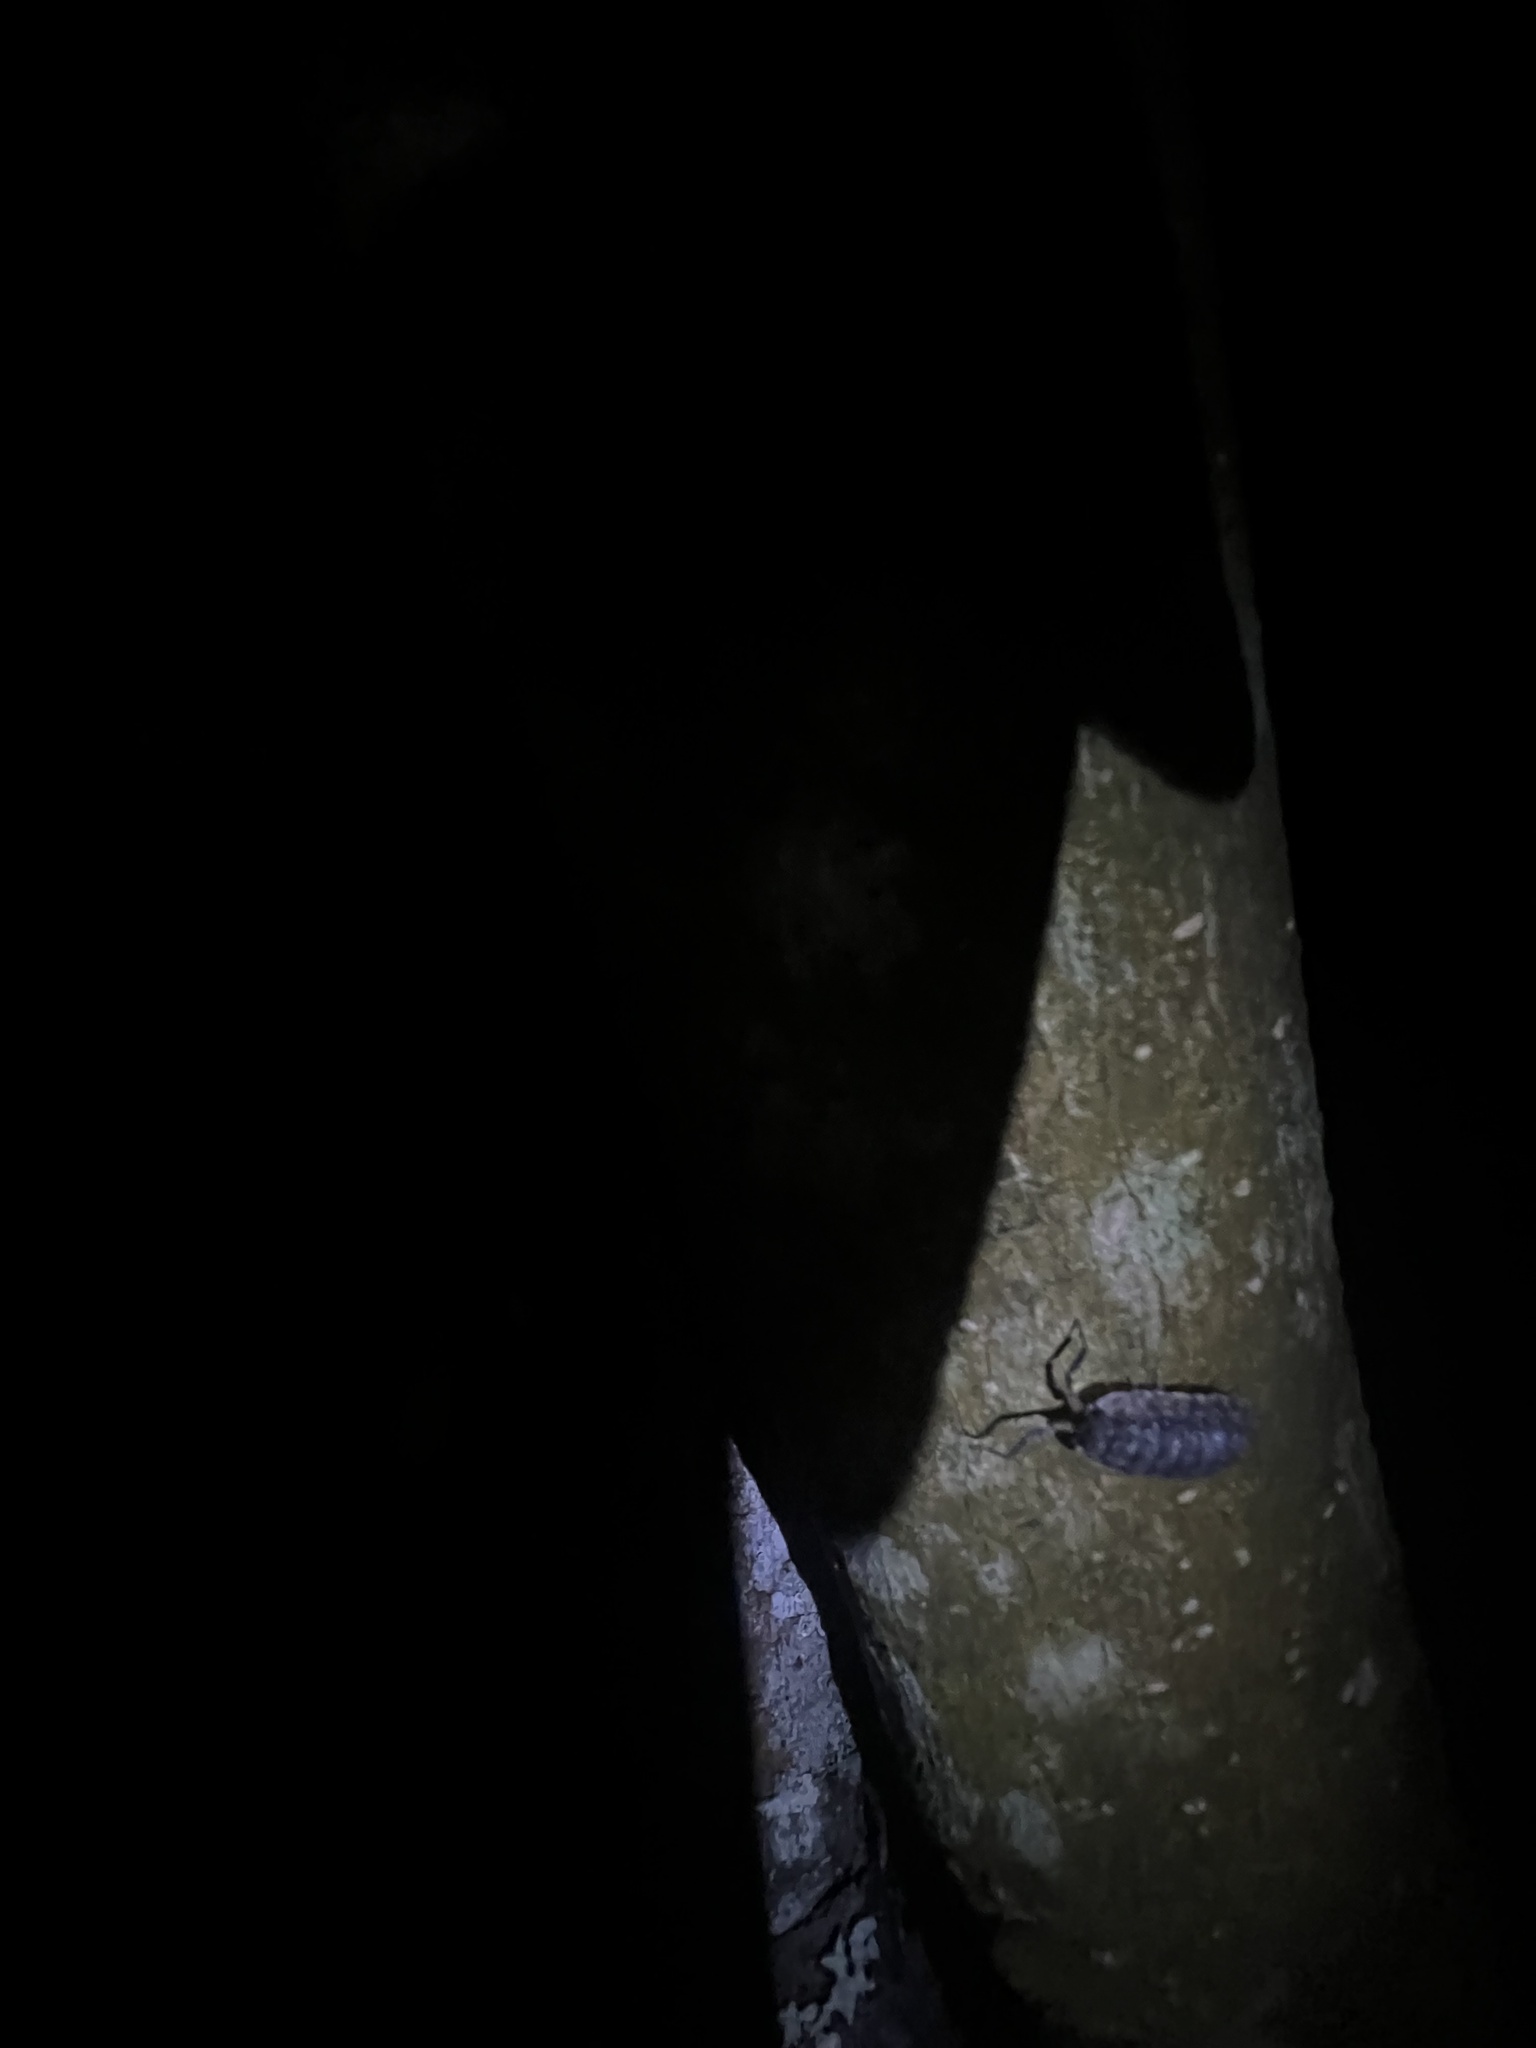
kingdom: Animalia
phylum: Arthropoda
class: Malacostraca
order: Isopoda
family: Porcellionidae
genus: Porcellio
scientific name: Porcellio scaber
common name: Common rough woodlouse
